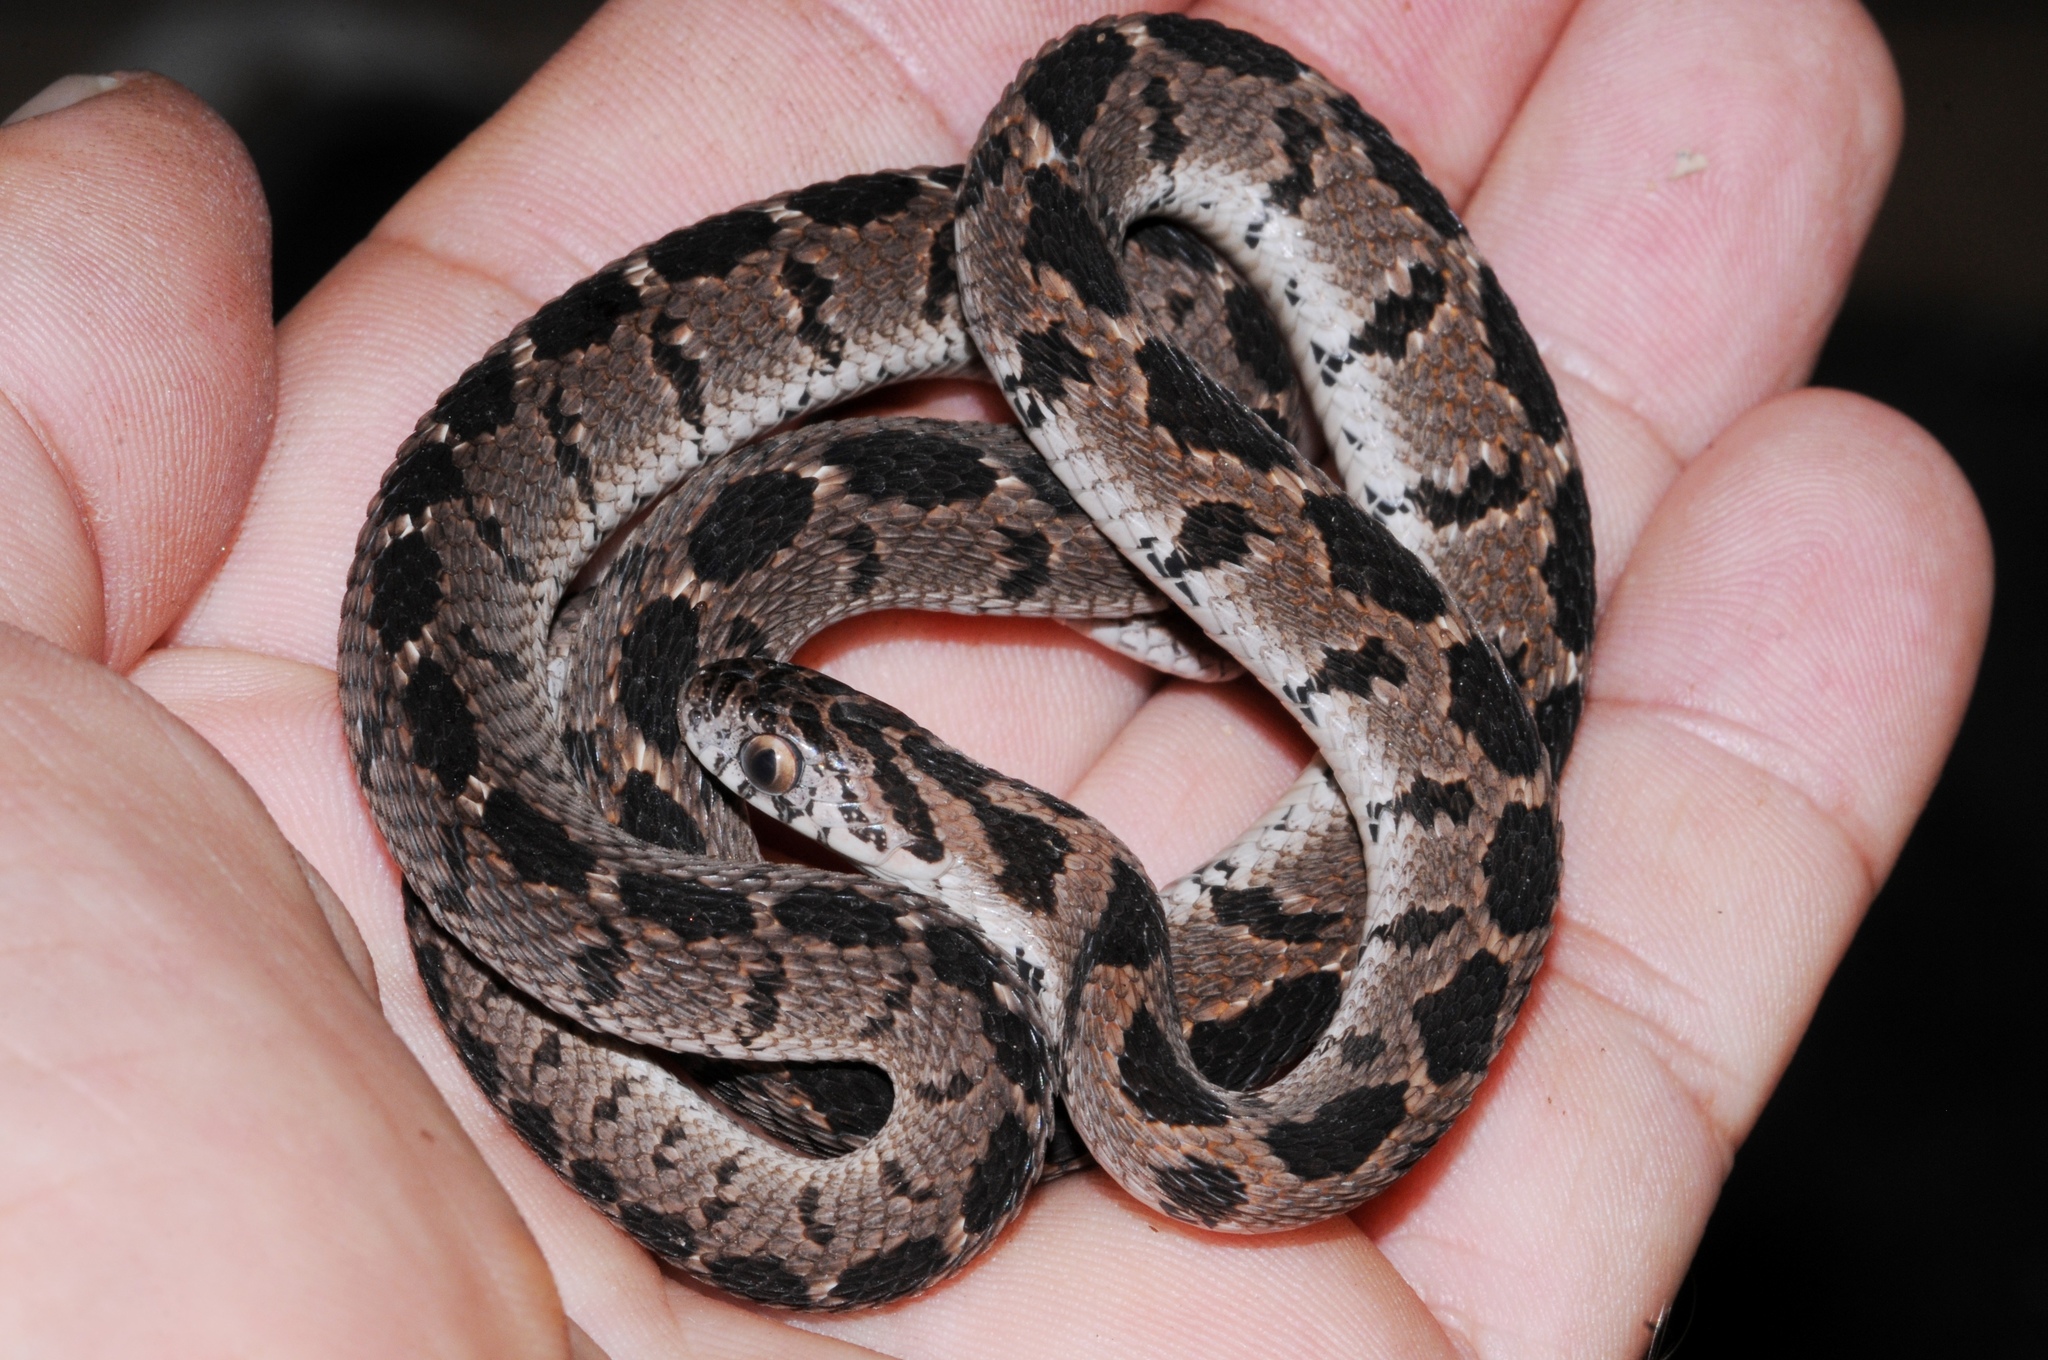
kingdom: Animalia
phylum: Chordata
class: Squamata
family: Colubridae
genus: Dasypeltis
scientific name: Dasypeltis scabra
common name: Common egg eater
